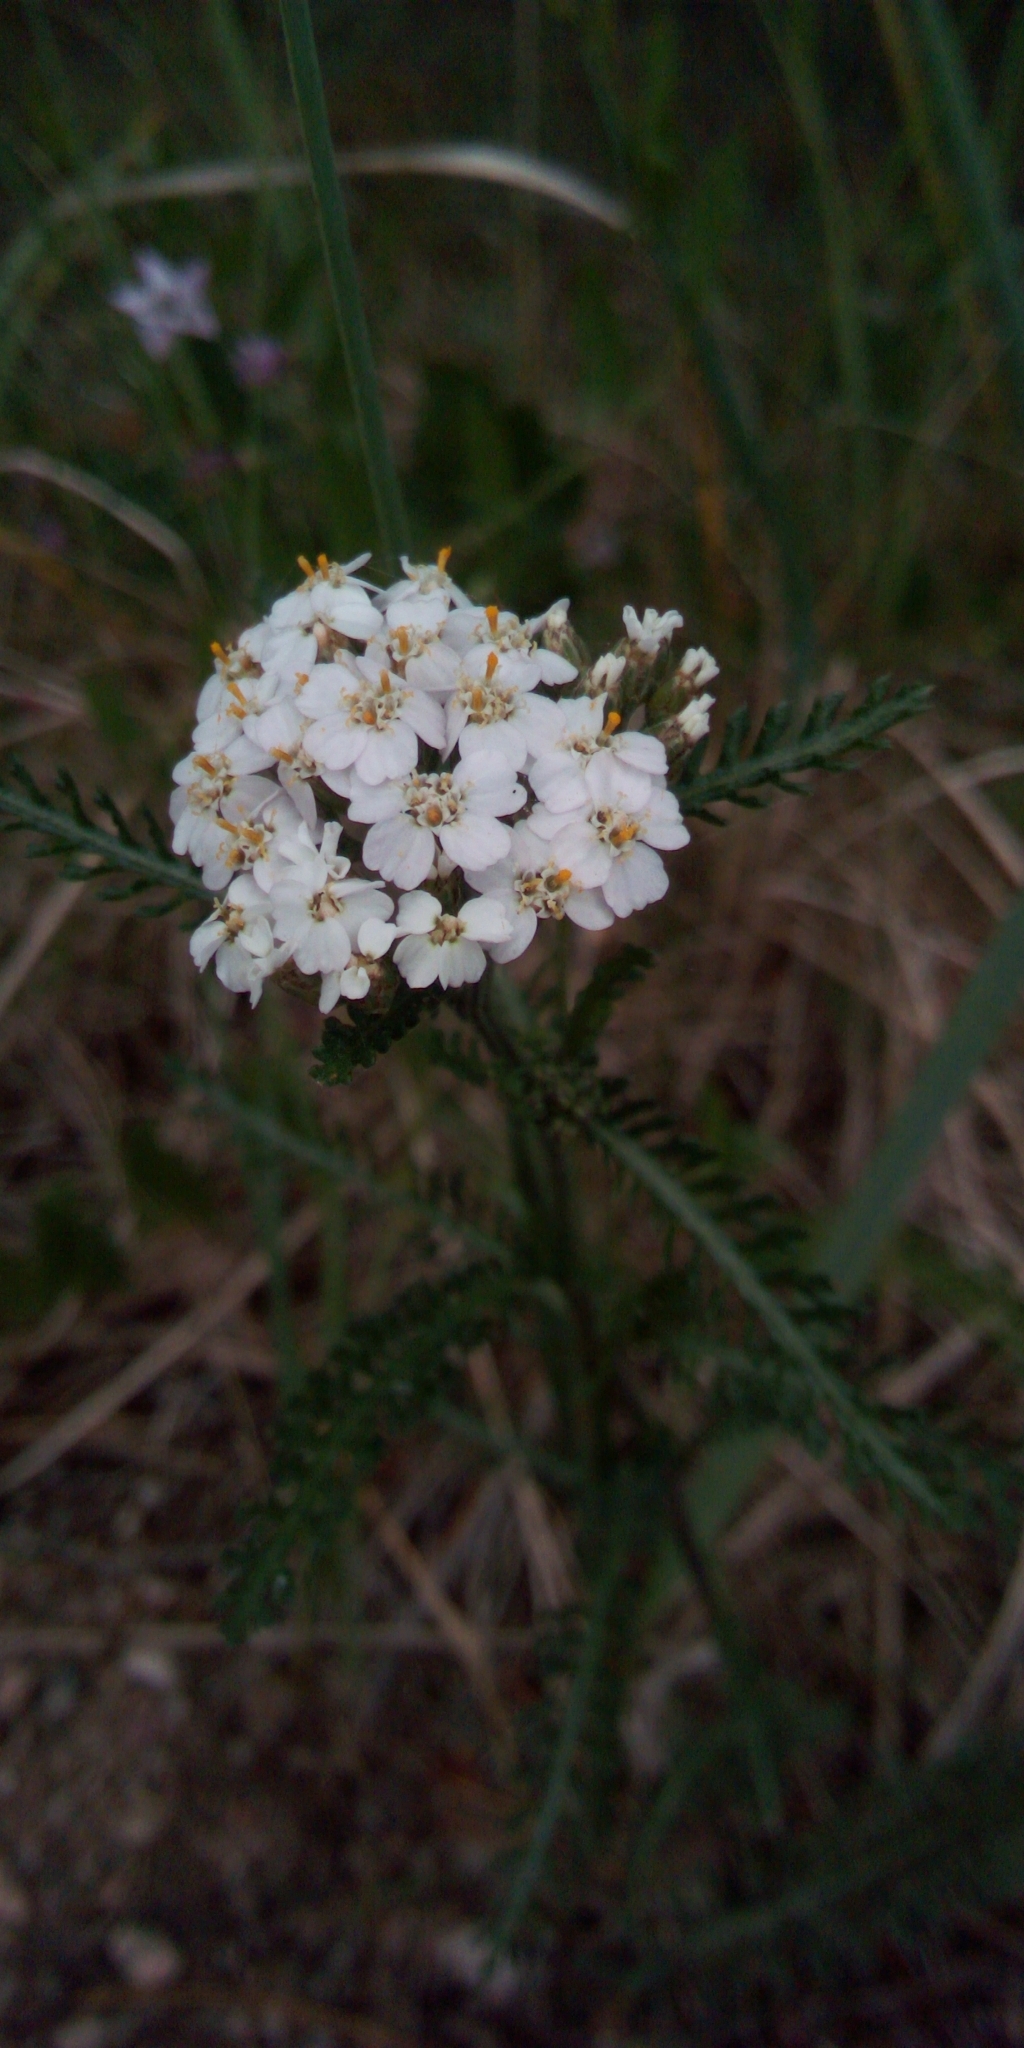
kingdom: Plantae
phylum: Tracheophyta
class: Magnoliopsida
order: Asterales
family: Asteraceae
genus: Achillea
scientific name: Achillea millefolium
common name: Yarrow
